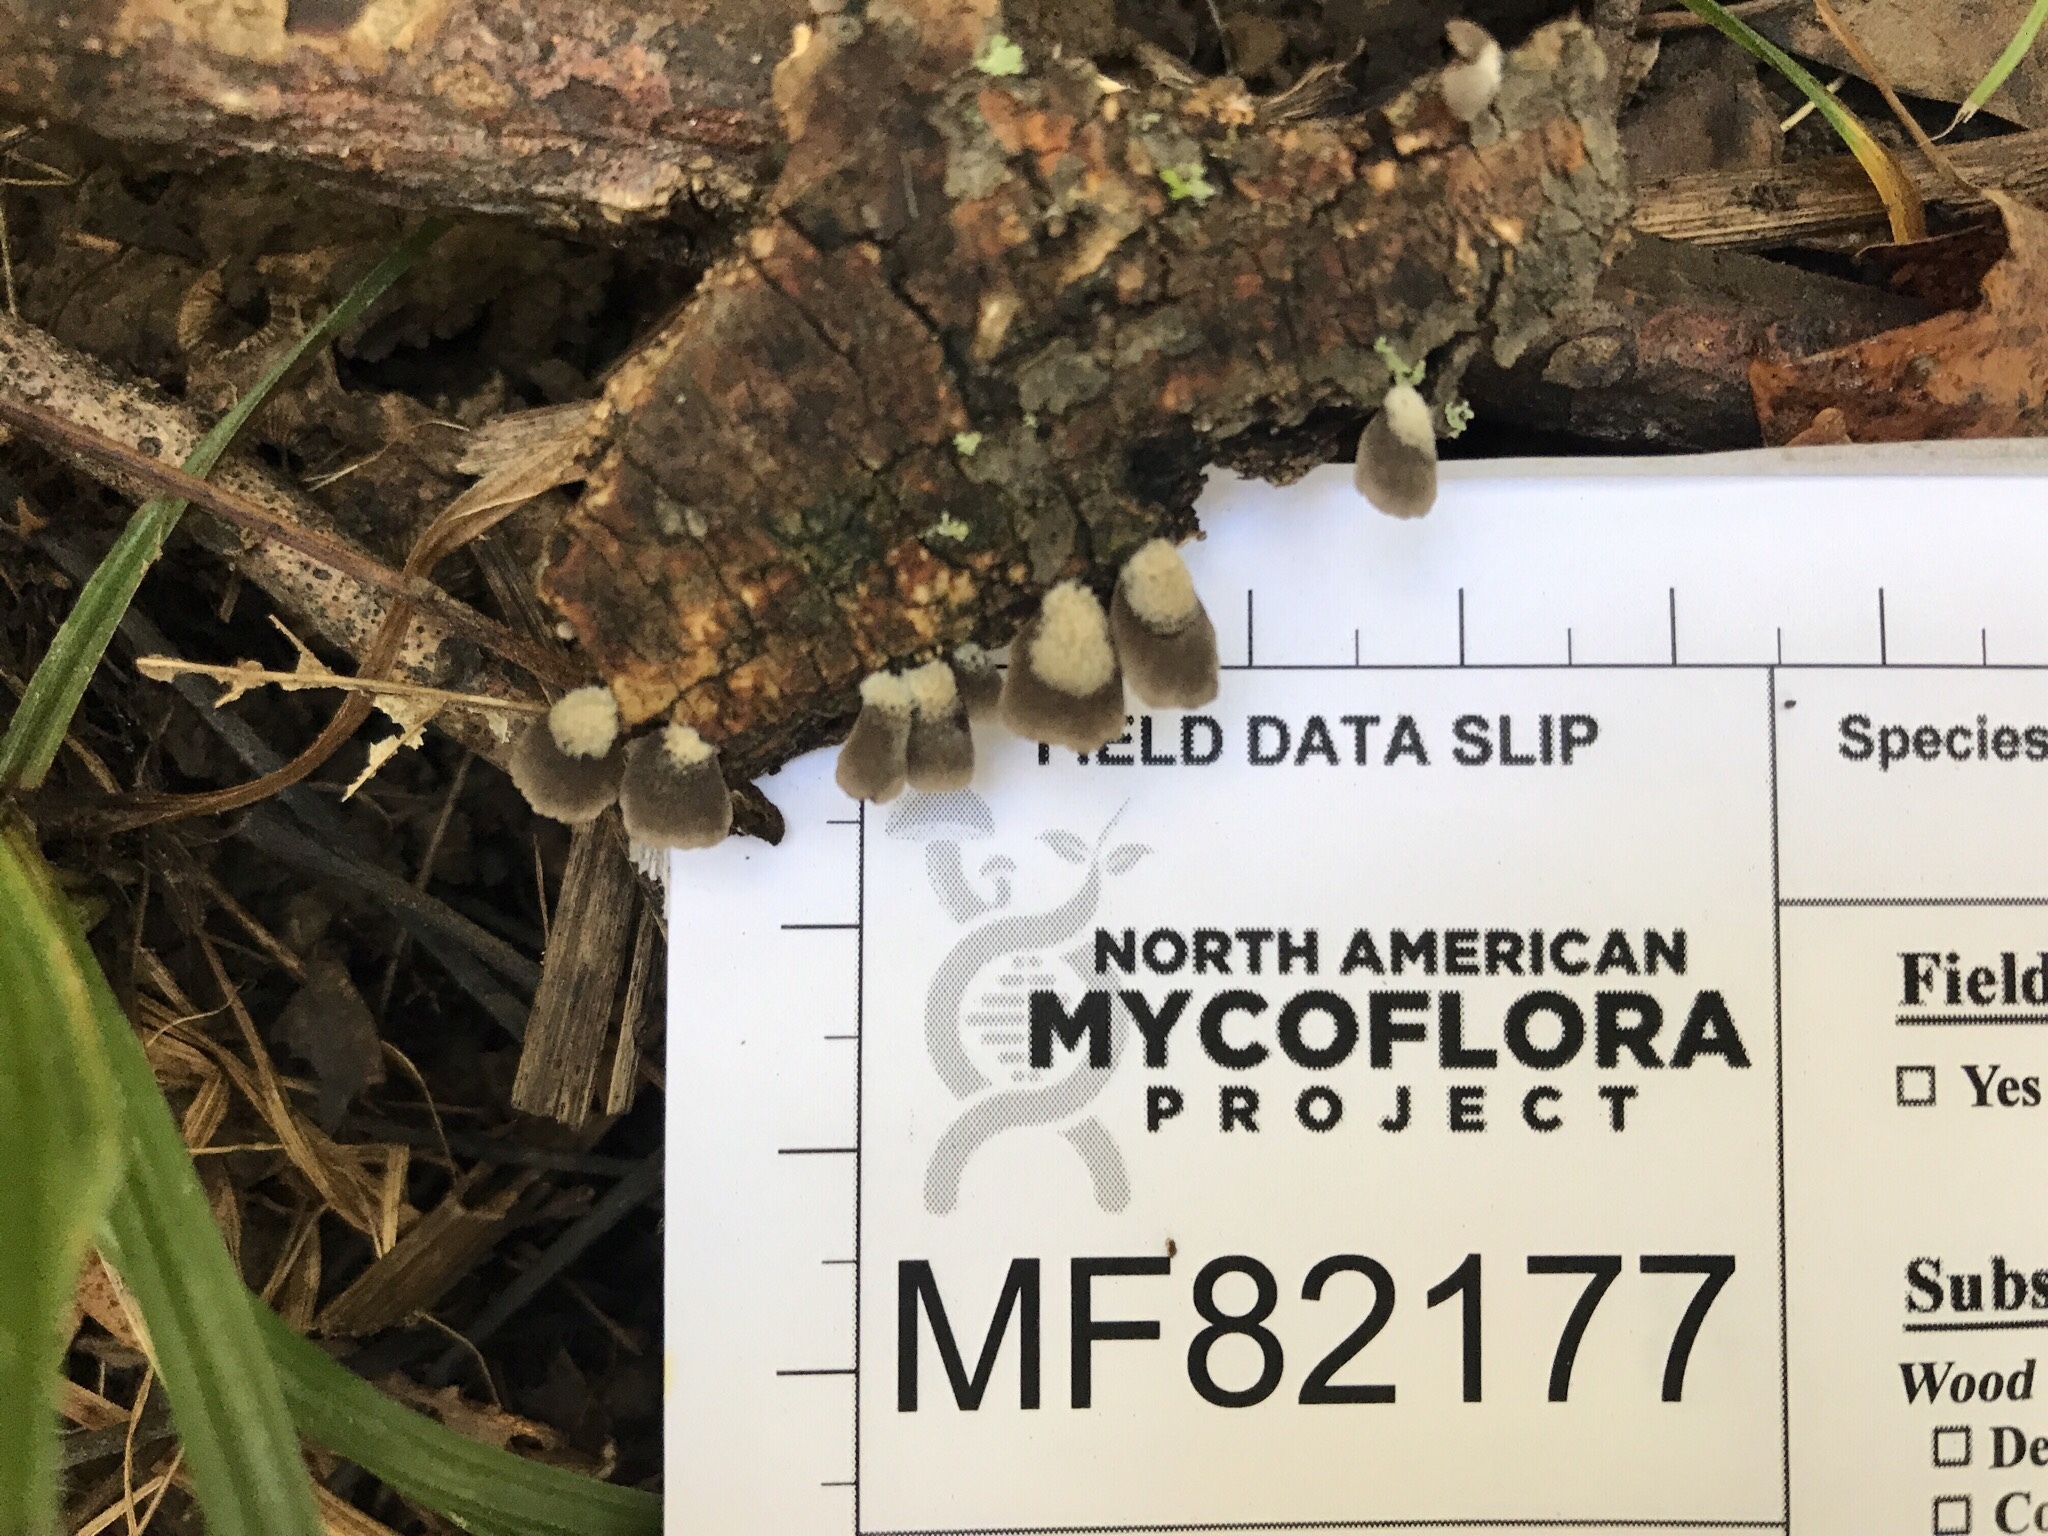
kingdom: Fungi
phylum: Basidiomycota
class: Agaricomycetes
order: Agaricales
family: Pleurotaceae
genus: Resupinatus
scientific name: Resupinatus rouxii
